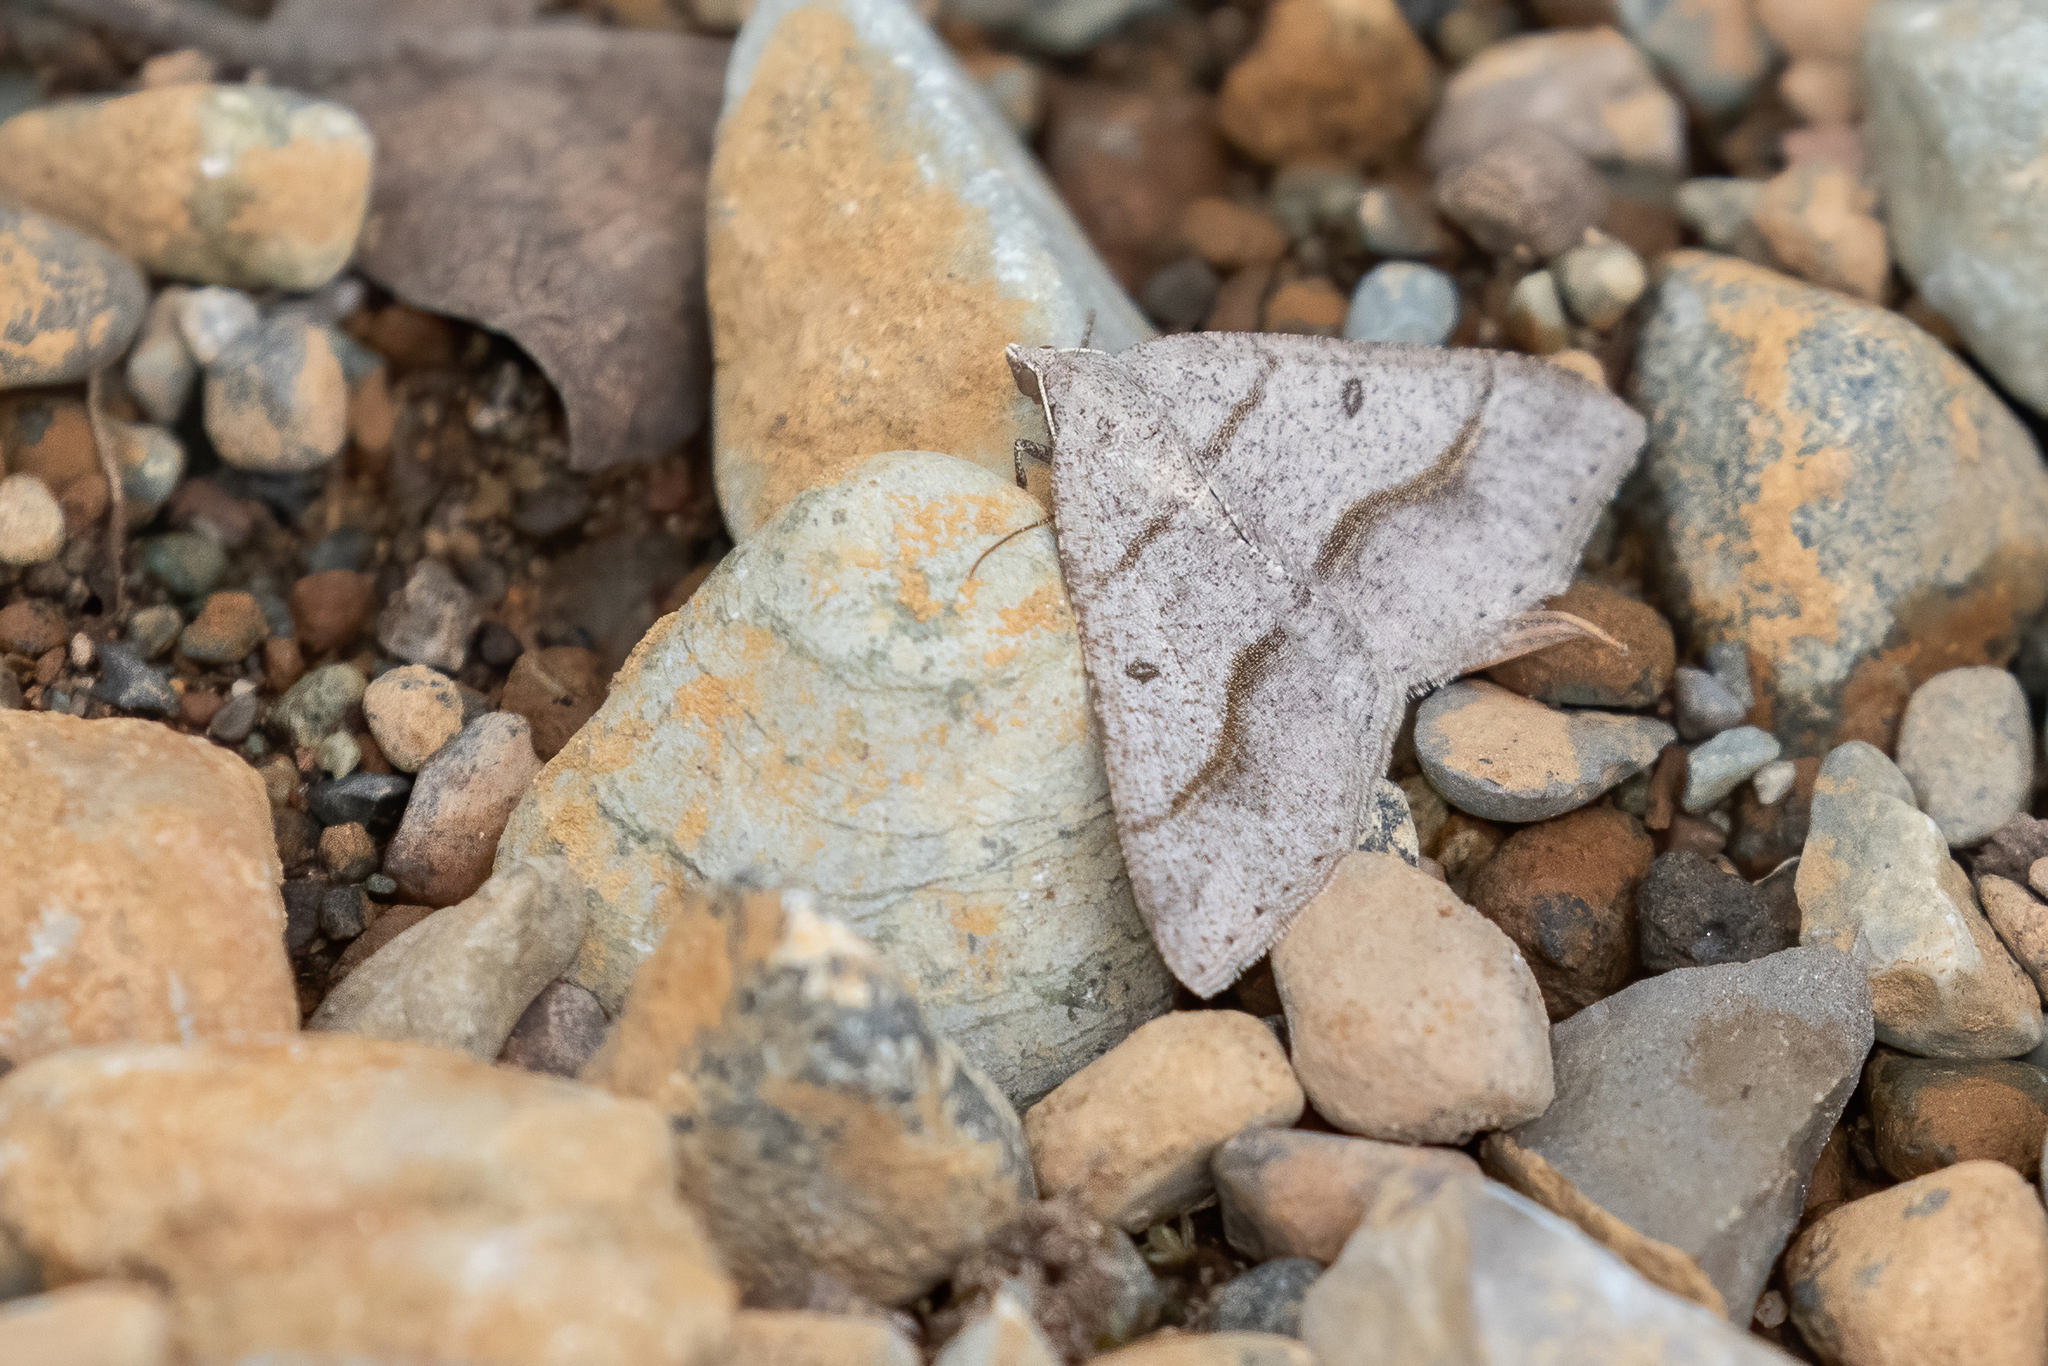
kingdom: Animalia
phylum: Arthropoda
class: Insecta
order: Lepidoptera
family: Geometridae
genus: Digrammia
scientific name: Digrammia neptaria
